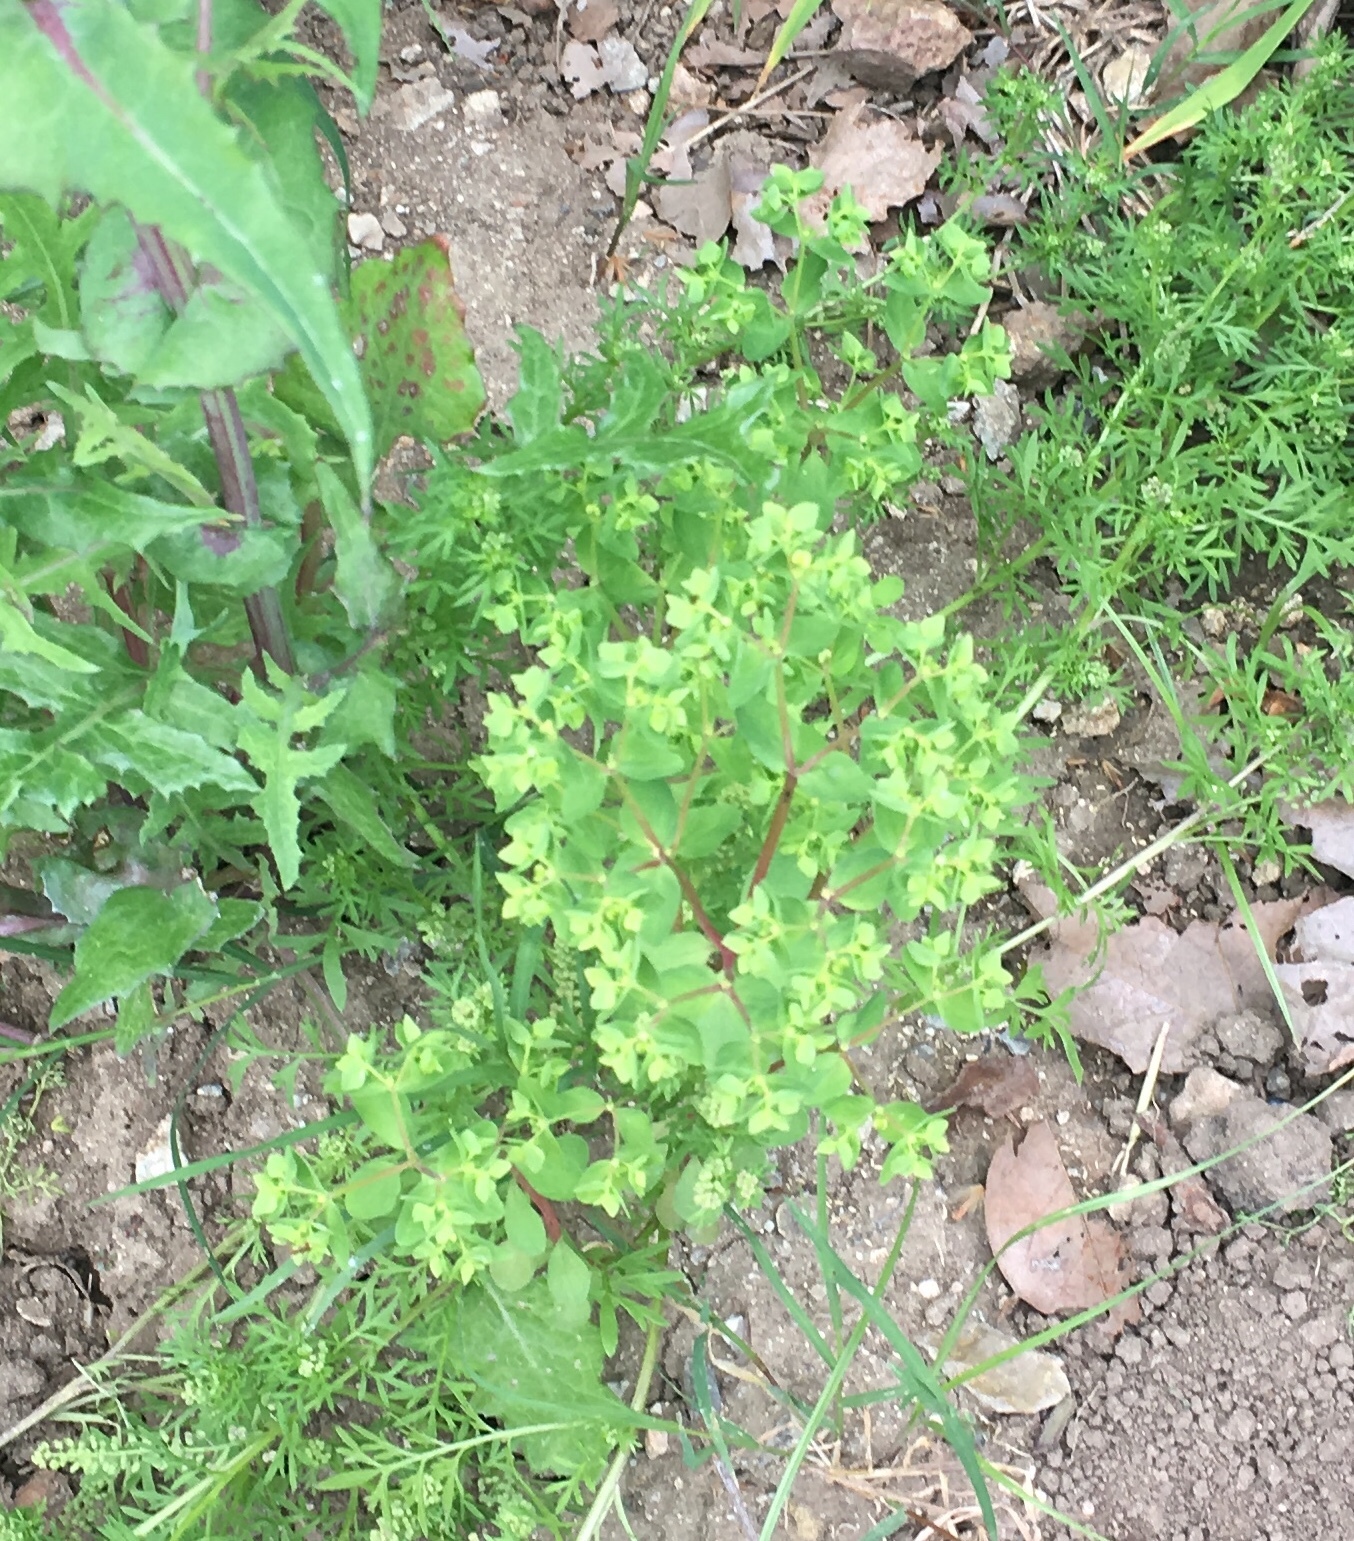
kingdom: Plantae
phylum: Tracheophyta
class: Magnoliopsida
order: Malpighiales
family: Euphorbiaceae
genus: Euphorbia
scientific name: Euphorbia peplus
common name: Petty spurge
